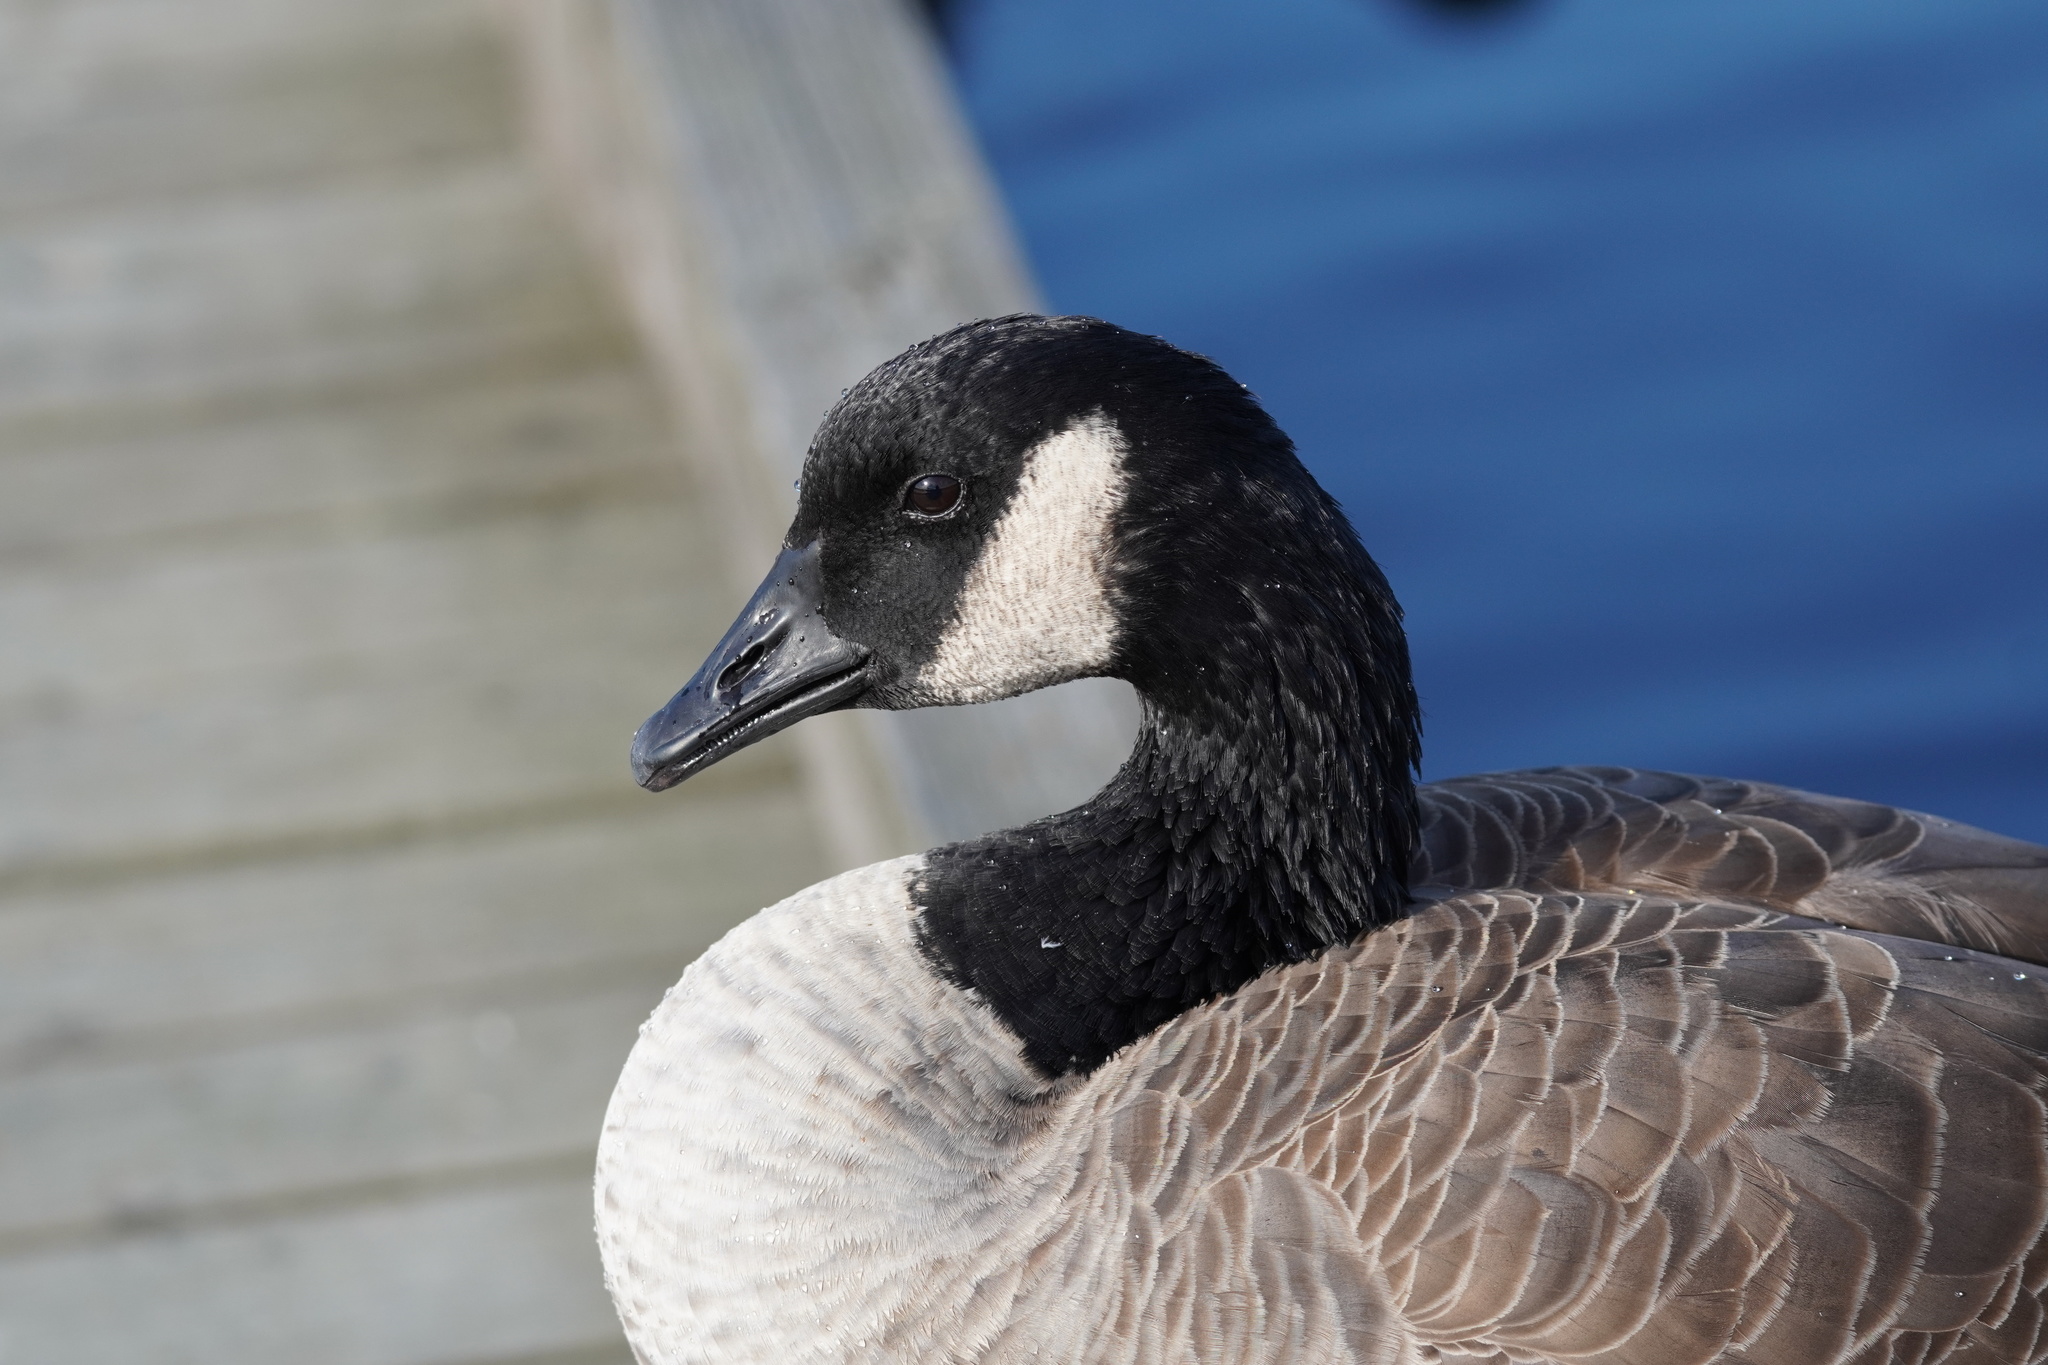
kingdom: Animalia
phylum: Chordata
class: Aves
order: Anseriformes
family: Anatidae
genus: Branta
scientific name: Branta canadensis
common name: Canada goose
